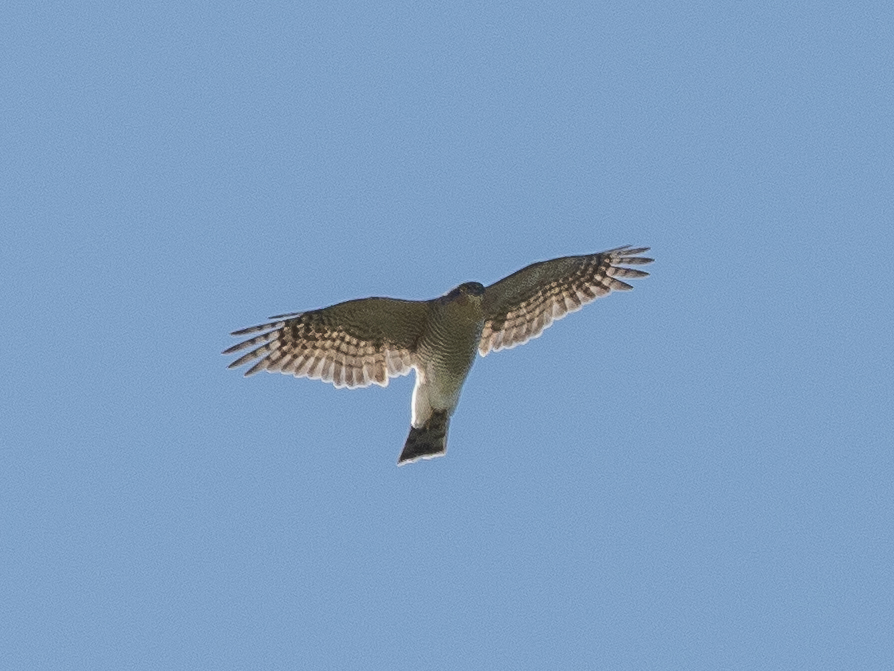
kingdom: Animalia
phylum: Chordata
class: Aves
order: Accipitriformes
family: Accipitridae
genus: Accipiter
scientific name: Accipiter nisus
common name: Eurasian sparrowhawk
